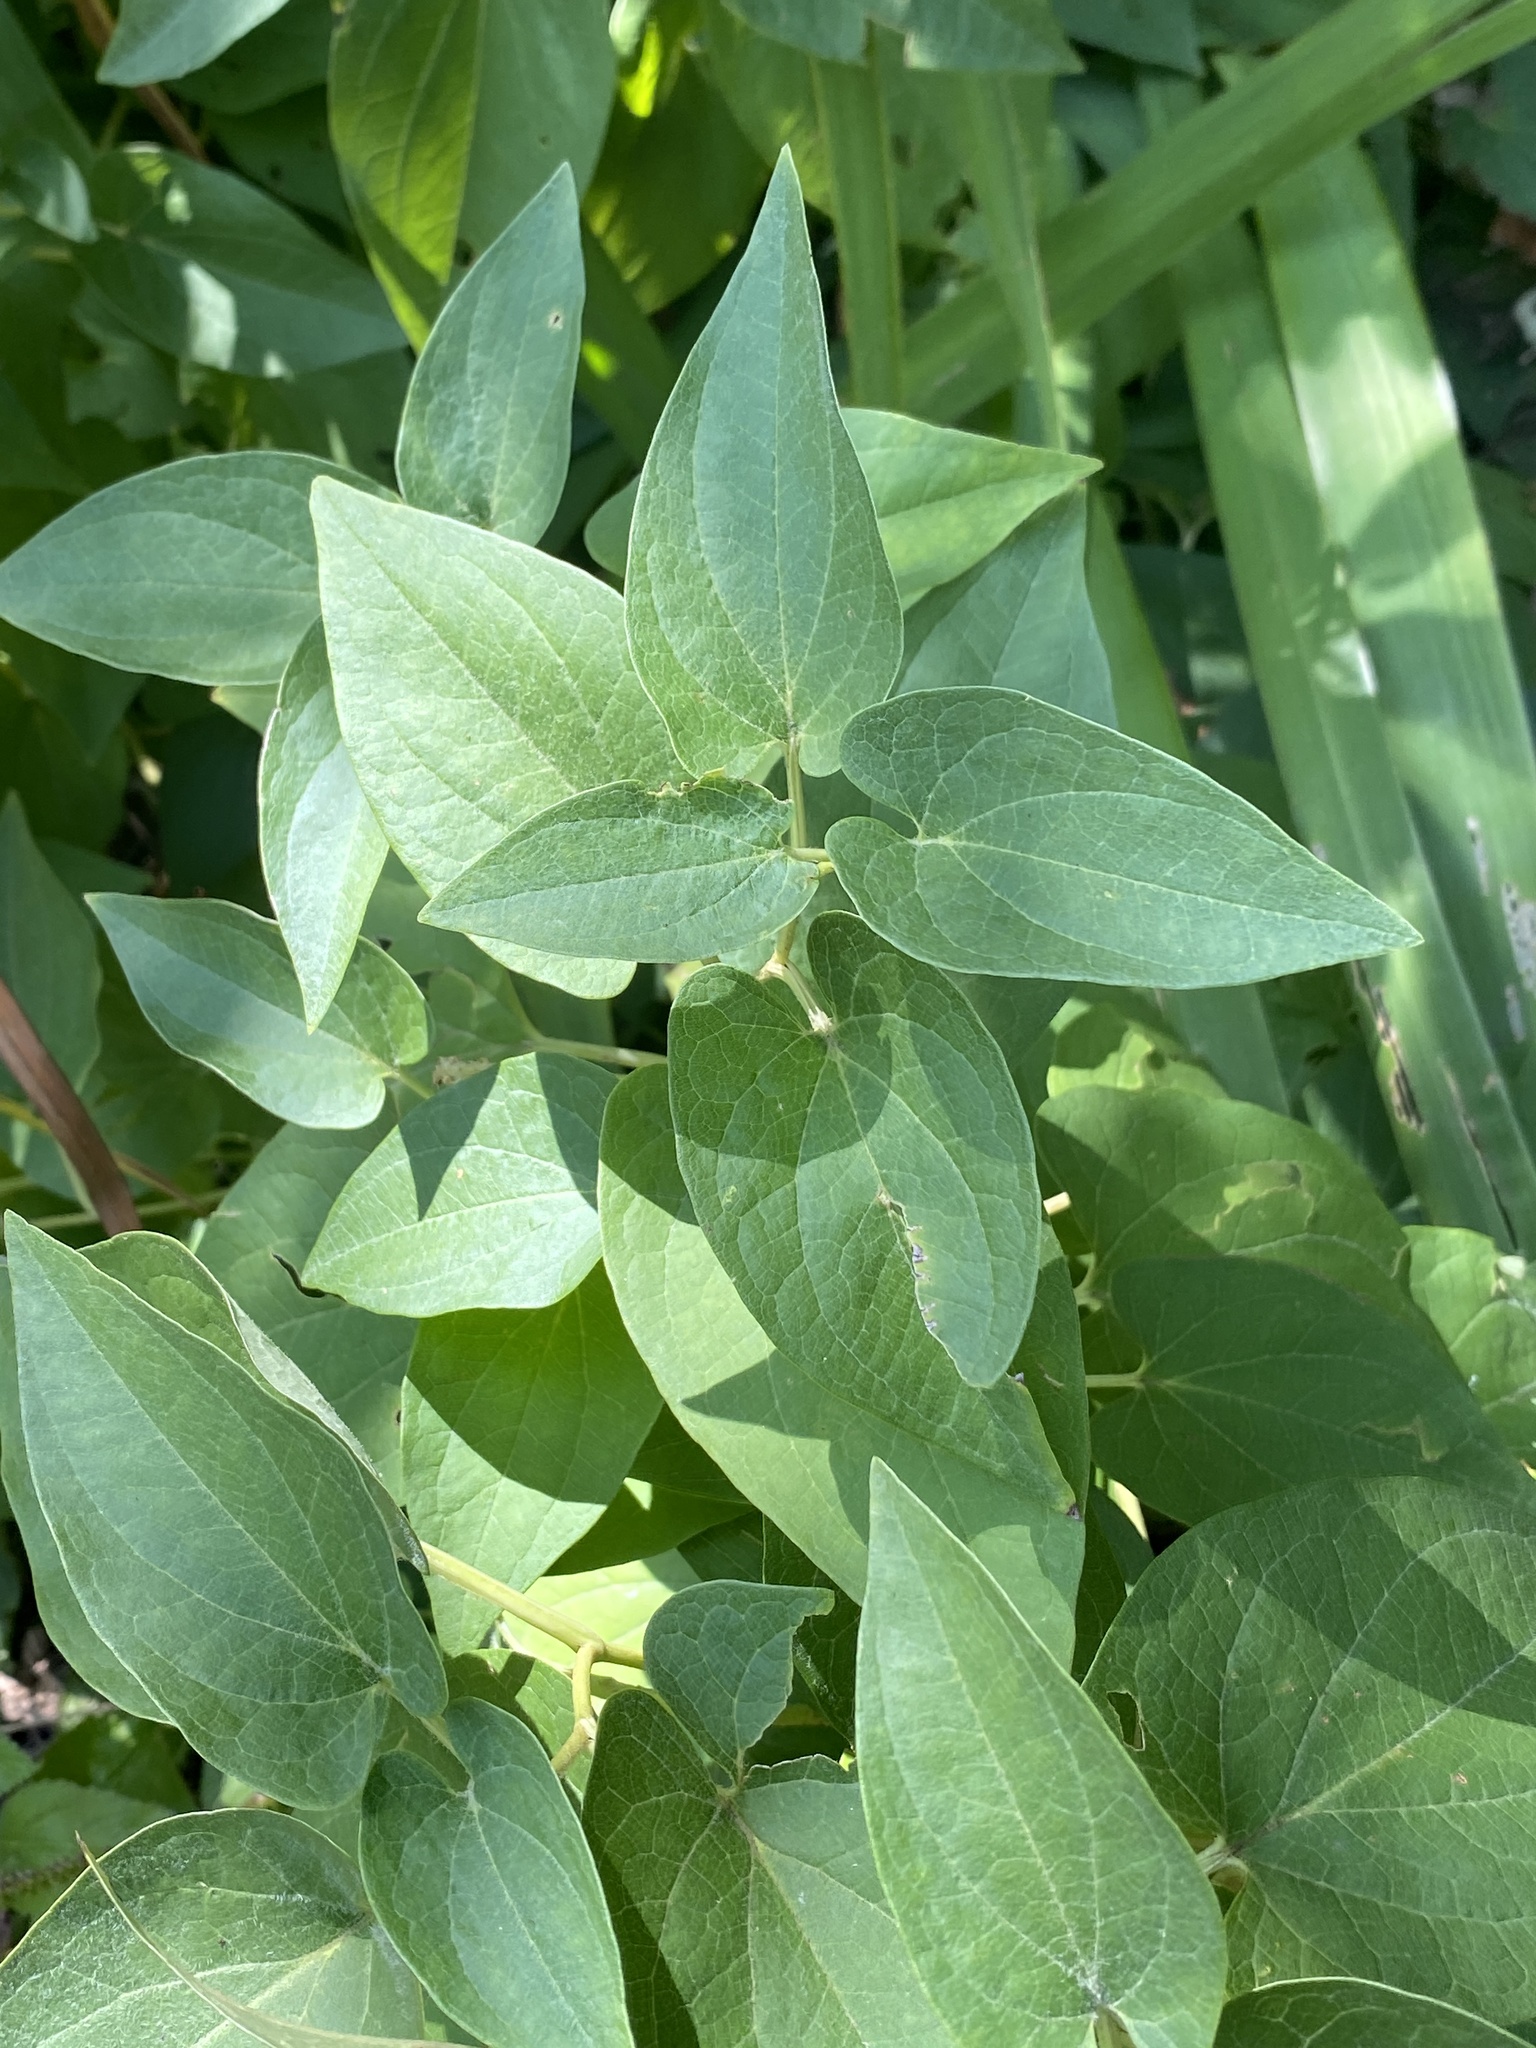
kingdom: Plantae
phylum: Tracheophyta
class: Magnoliopsida
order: Piperales
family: Saururaceae
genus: Saururus
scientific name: Saururus cernuus
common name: Lizard's-tail
